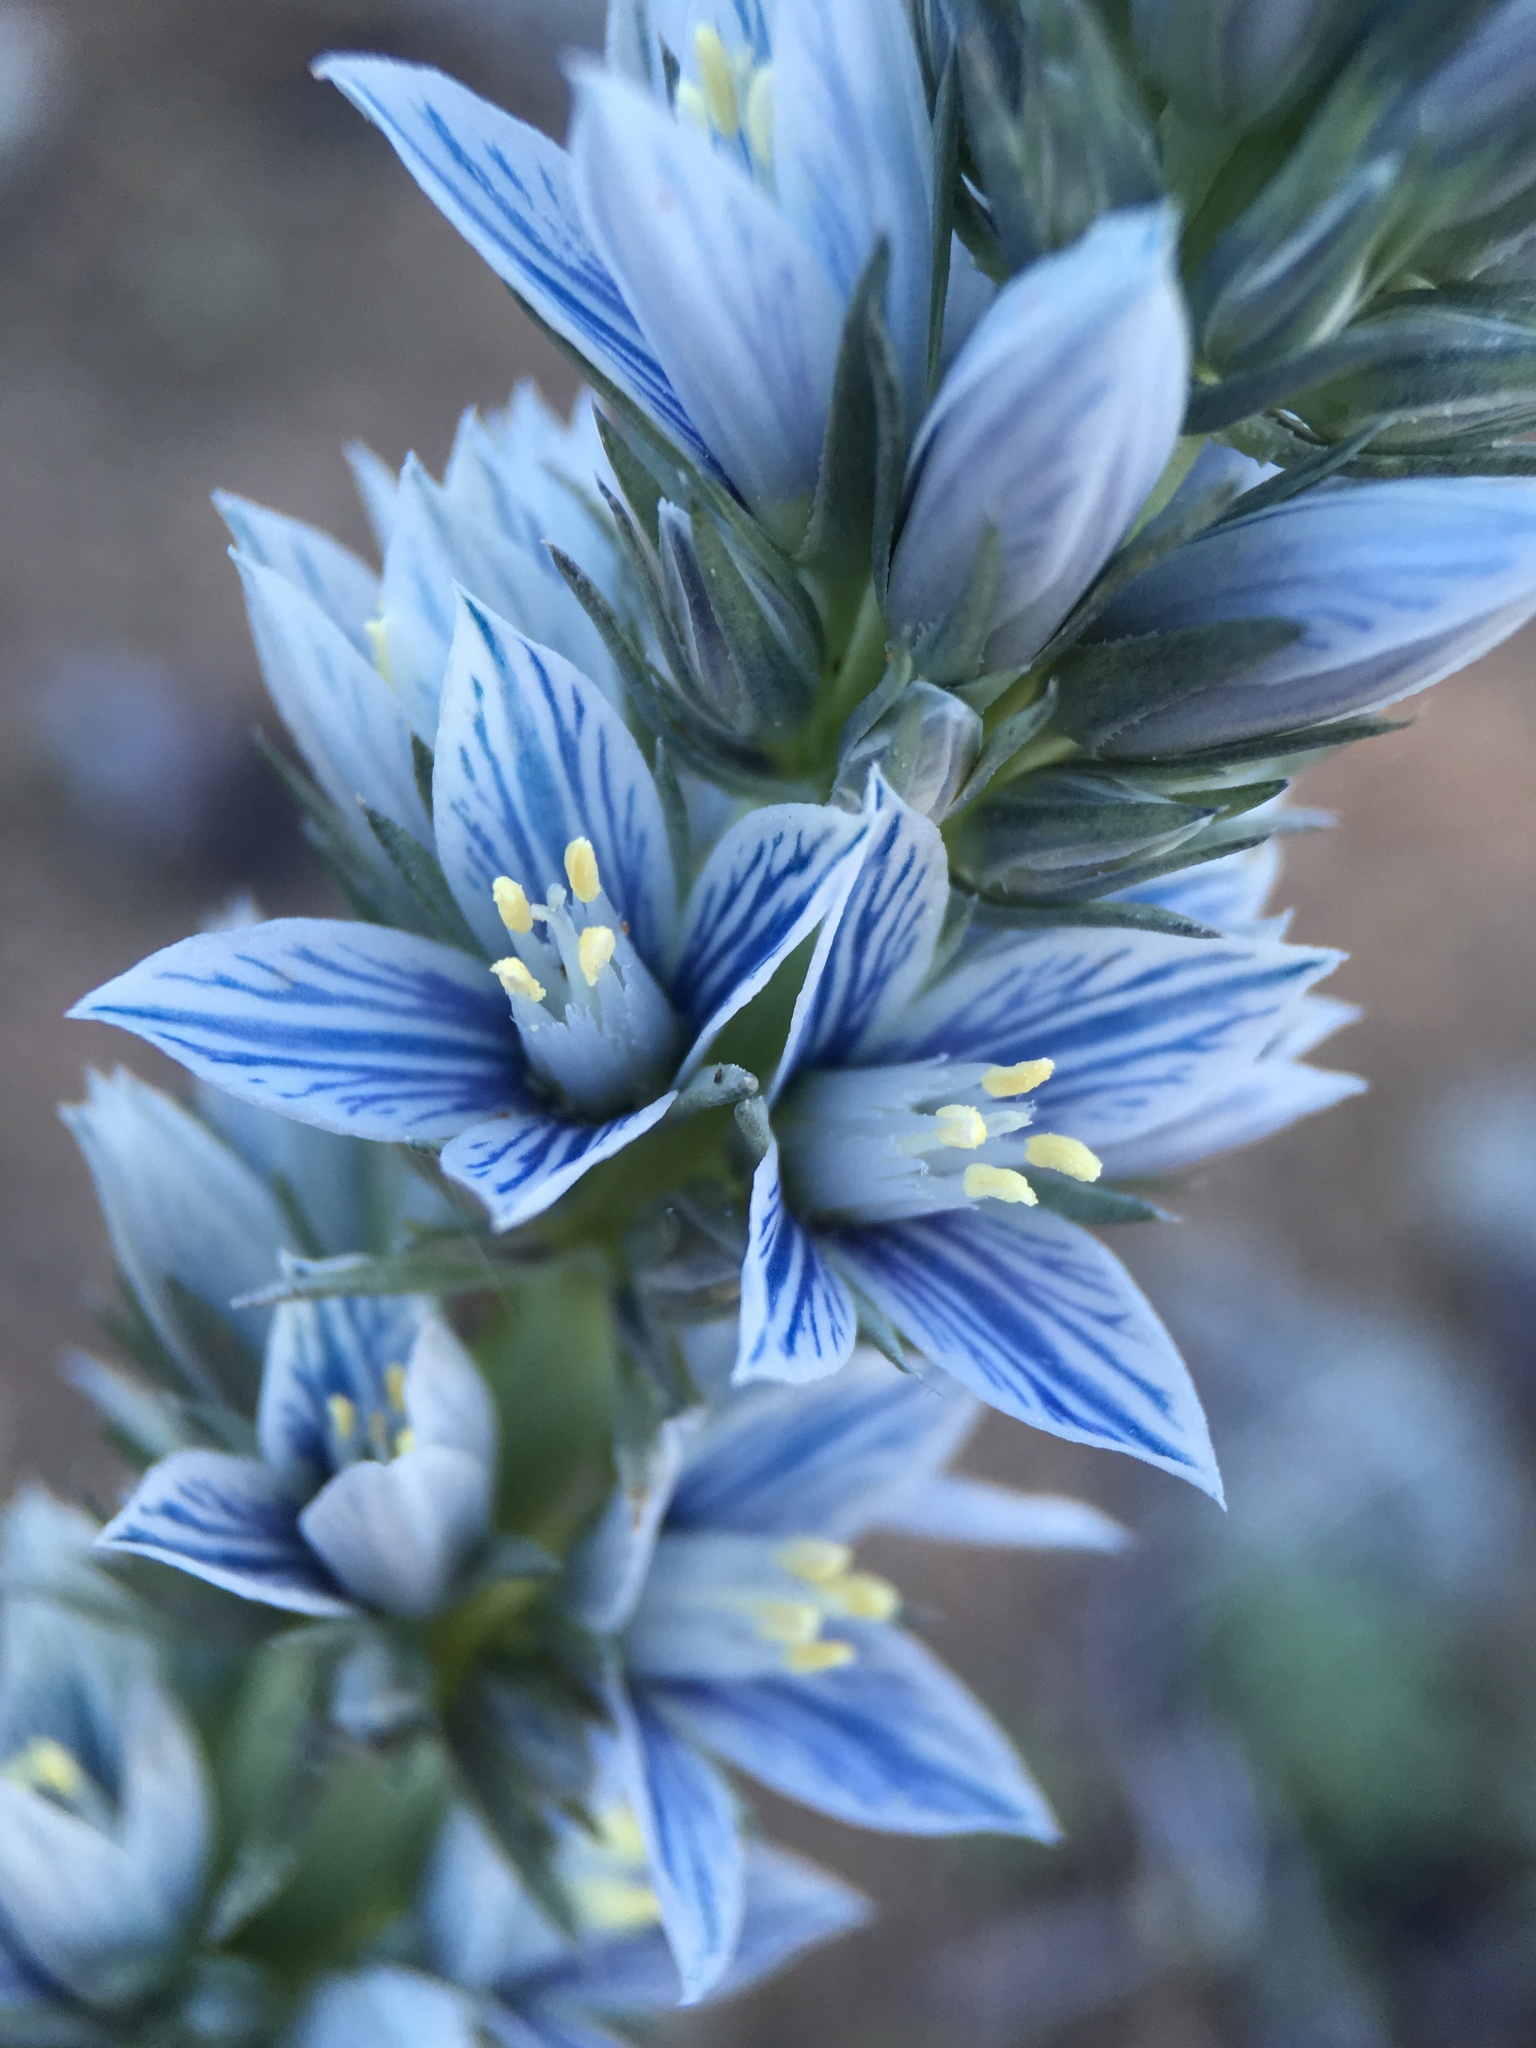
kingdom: Plantae
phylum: Tracheophyta
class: Magnoliopsida
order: Gentianales
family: Gentianaceae
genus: Frasera
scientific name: Frasera tubulosa
